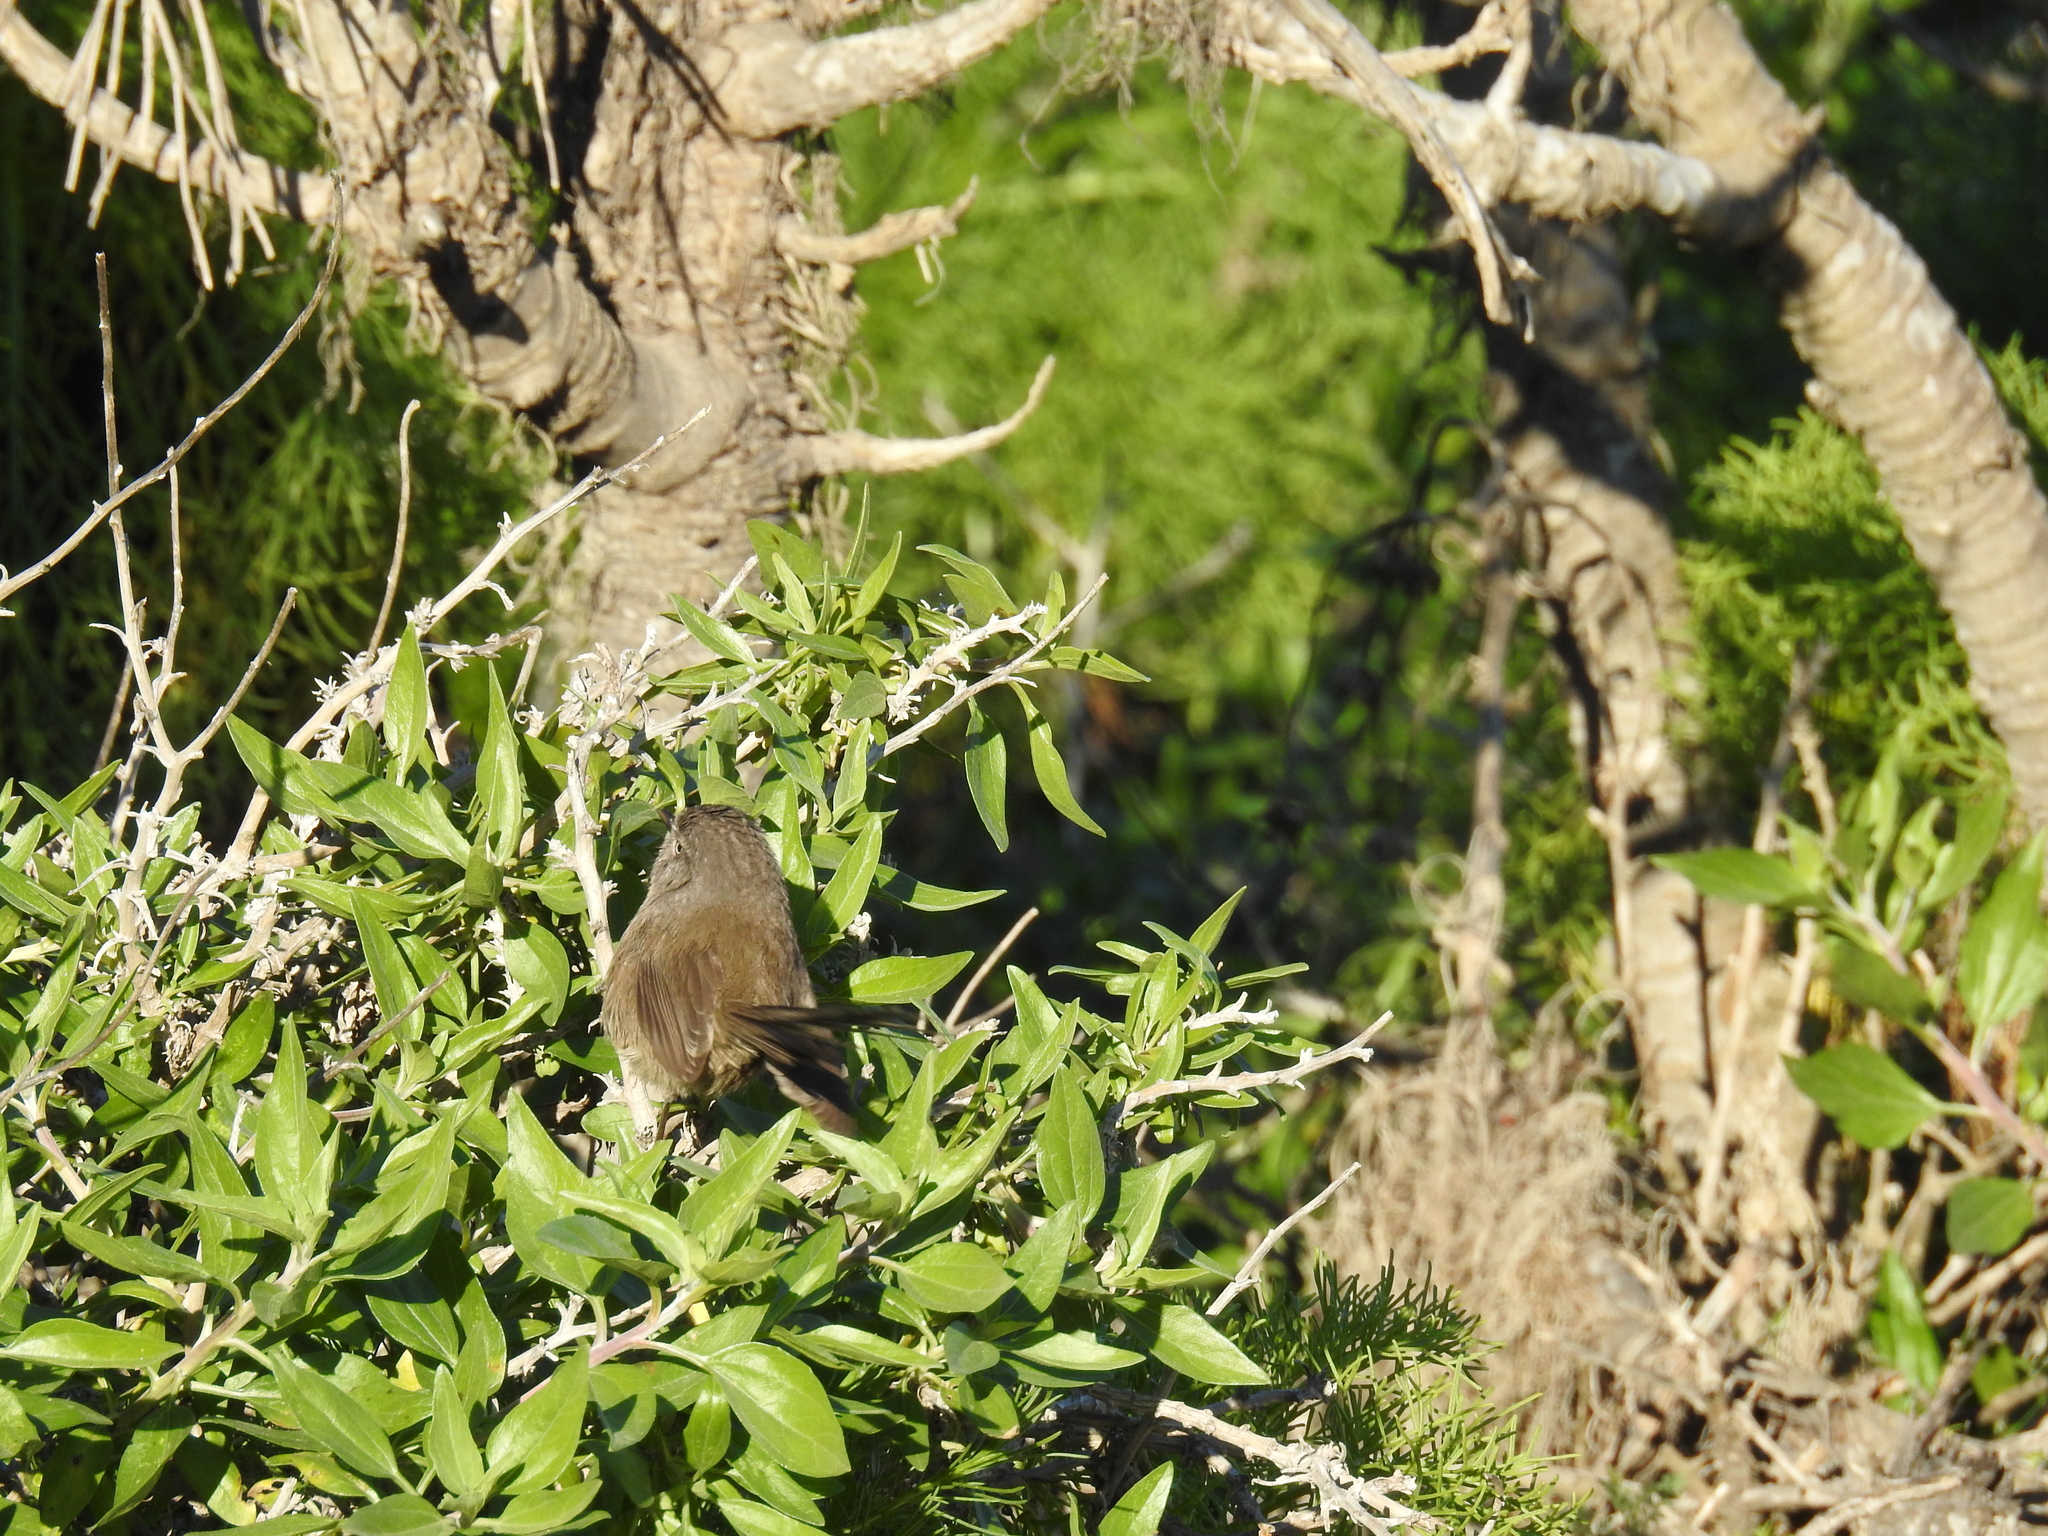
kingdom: Animalia
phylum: Chordata
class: Aves
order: Passeriformes
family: Sylviidae
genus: Chamaea
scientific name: Chamaea fasciata
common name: Wrentit
